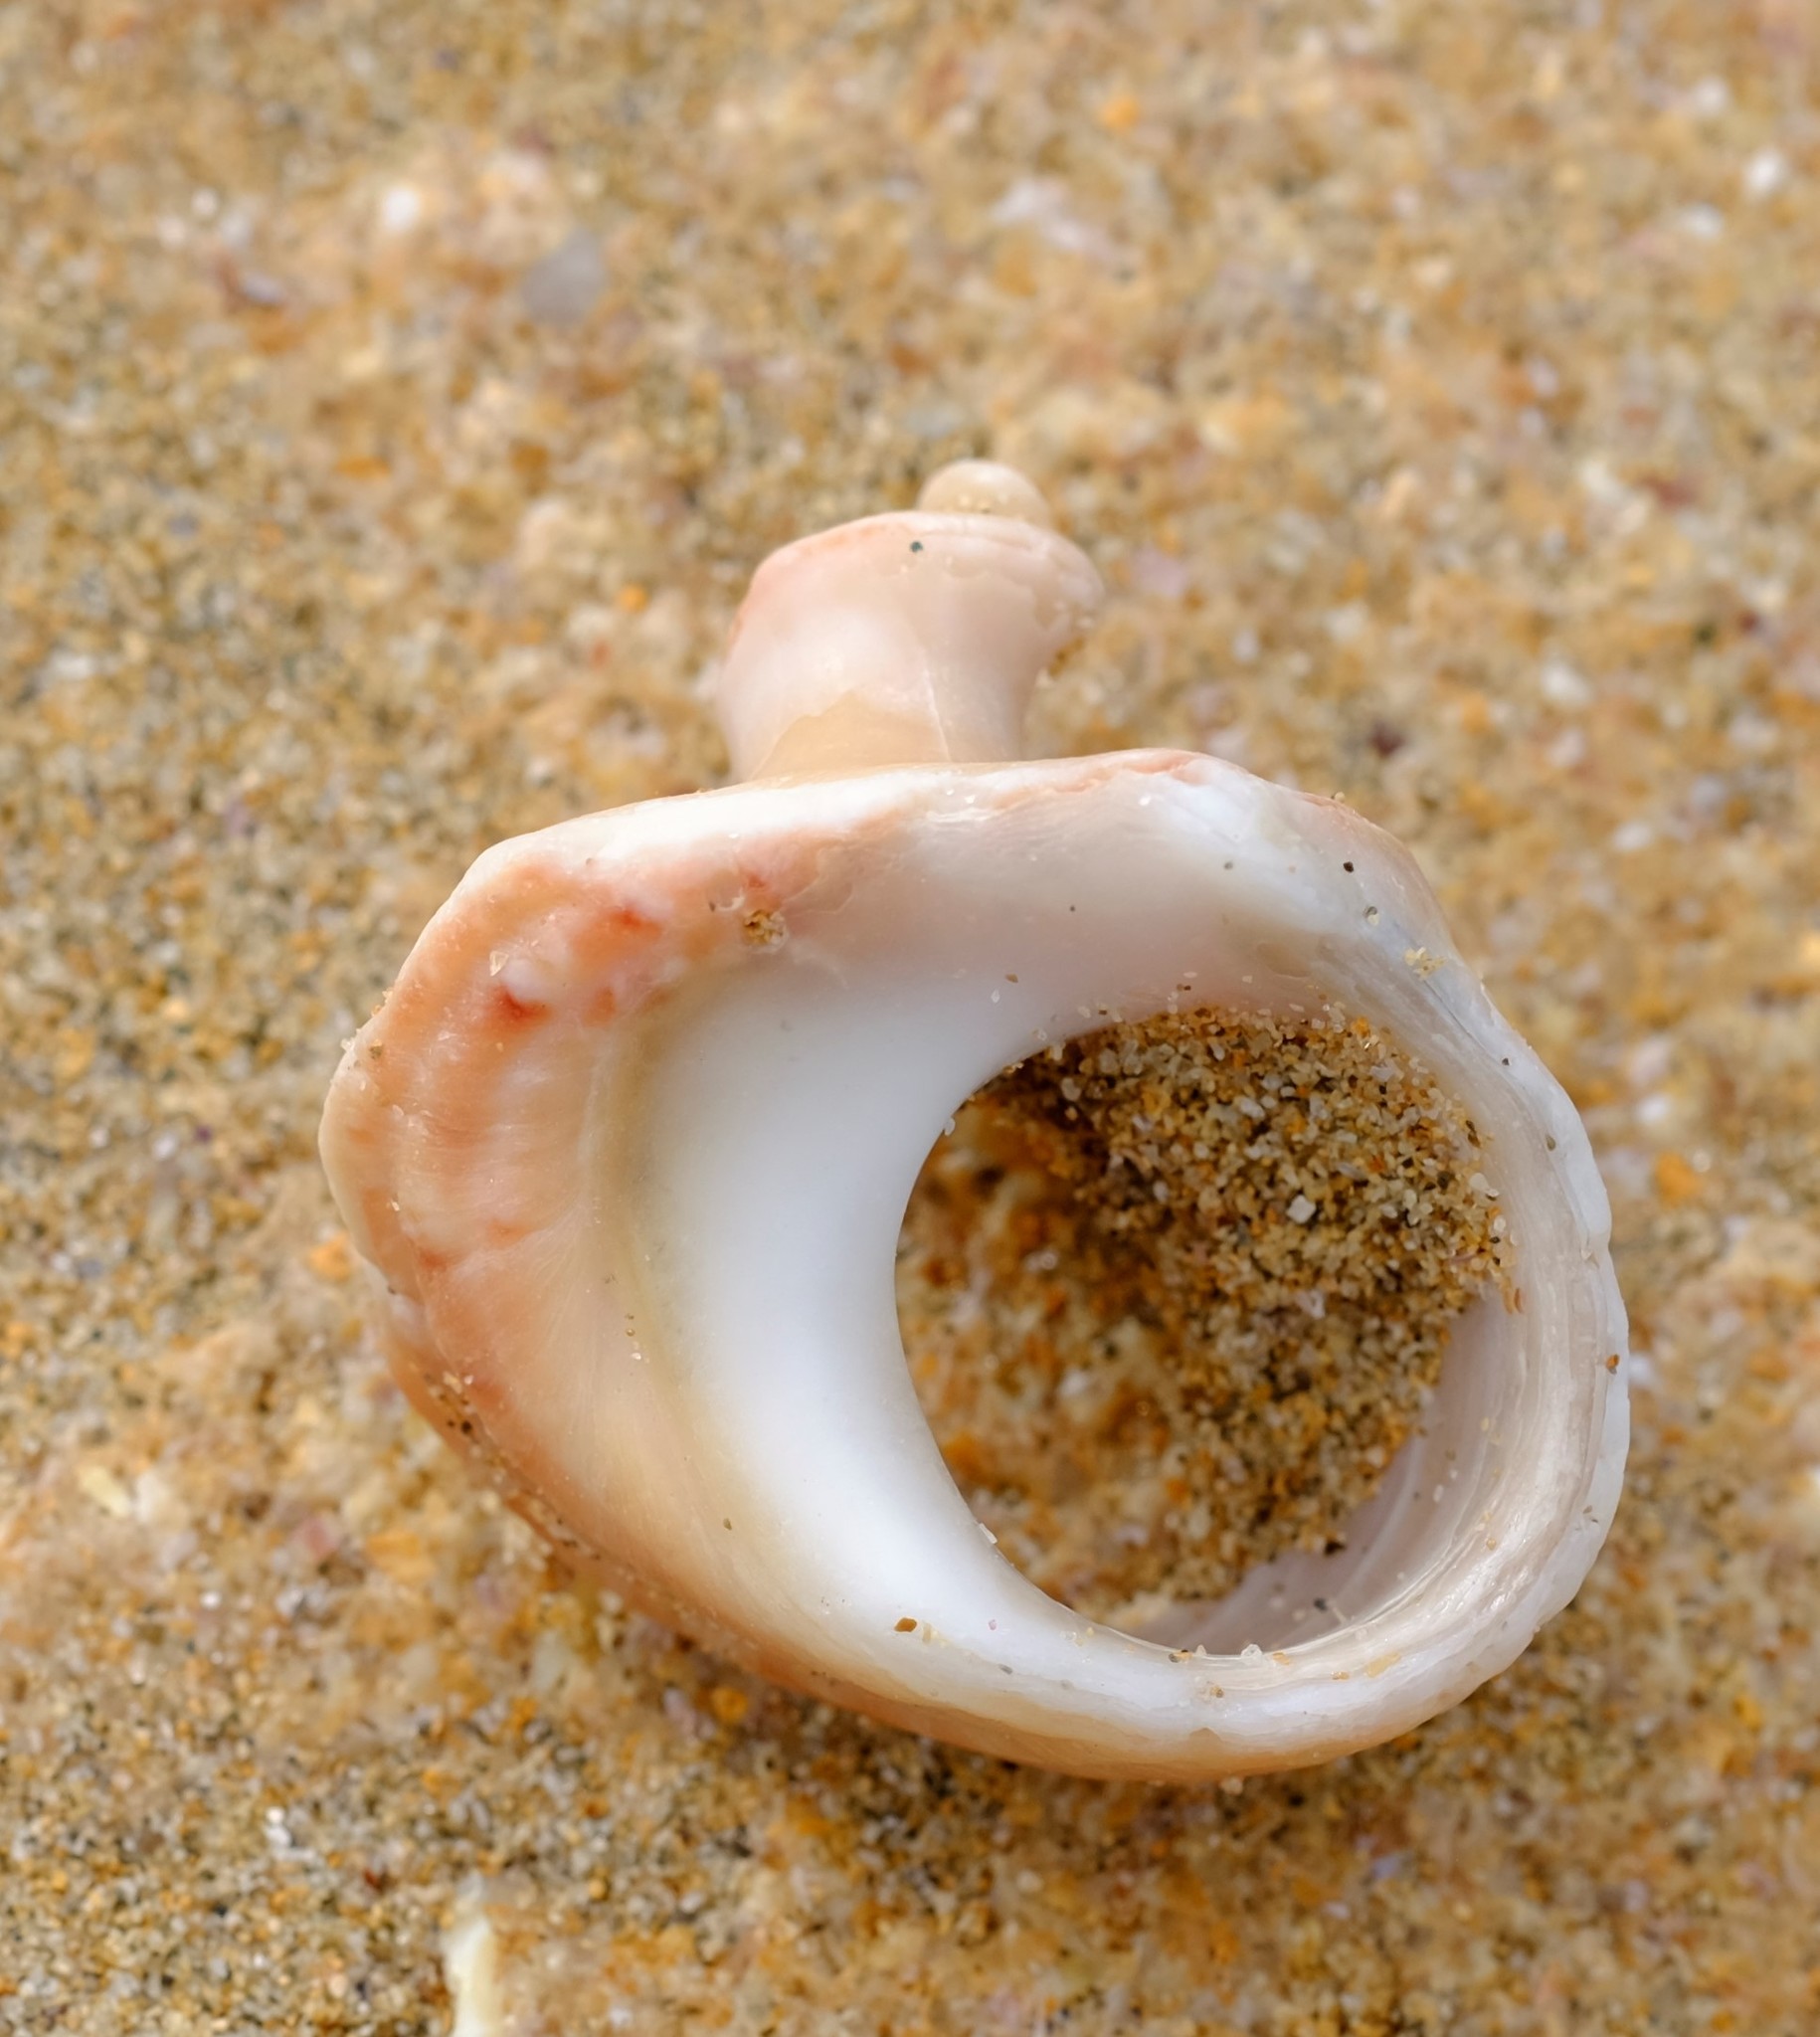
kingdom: Animalia
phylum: Mollusca
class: Gastropoda
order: Trochida
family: Turbinidae
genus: Turbo
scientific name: Turbo gruneri
